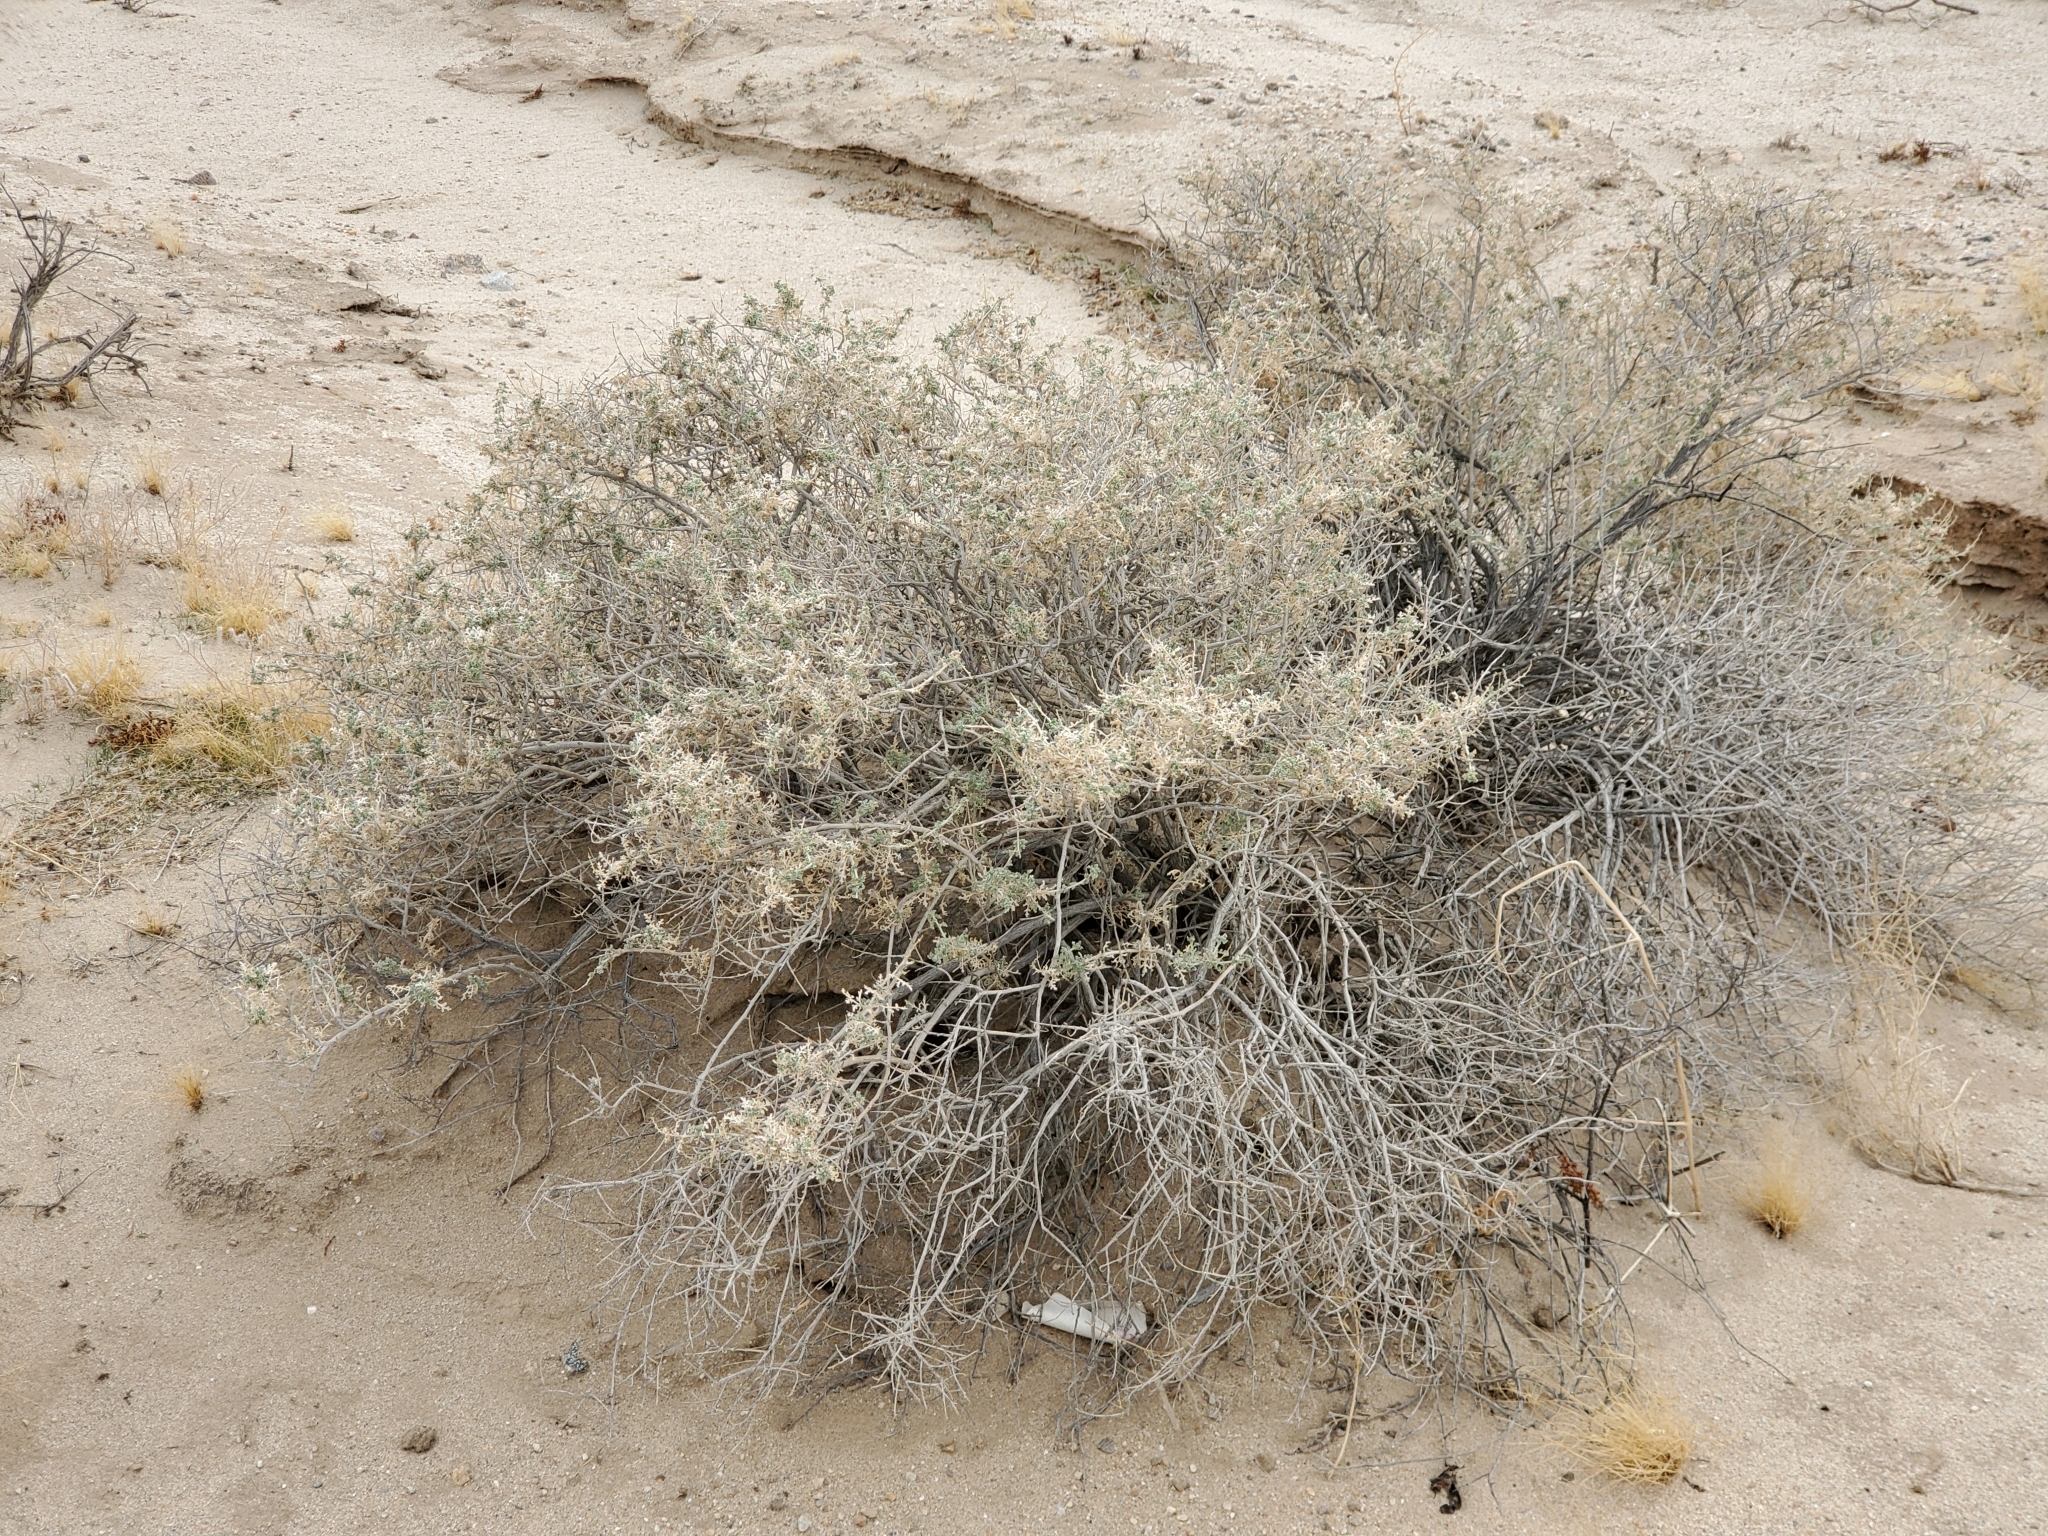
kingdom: Plantae
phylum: Tracheophyta
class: Magnoliopsida
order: Asterales
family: Asteraceae
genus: Ambrosia
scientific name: Ambrosia dumosa
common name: Bur-sage
